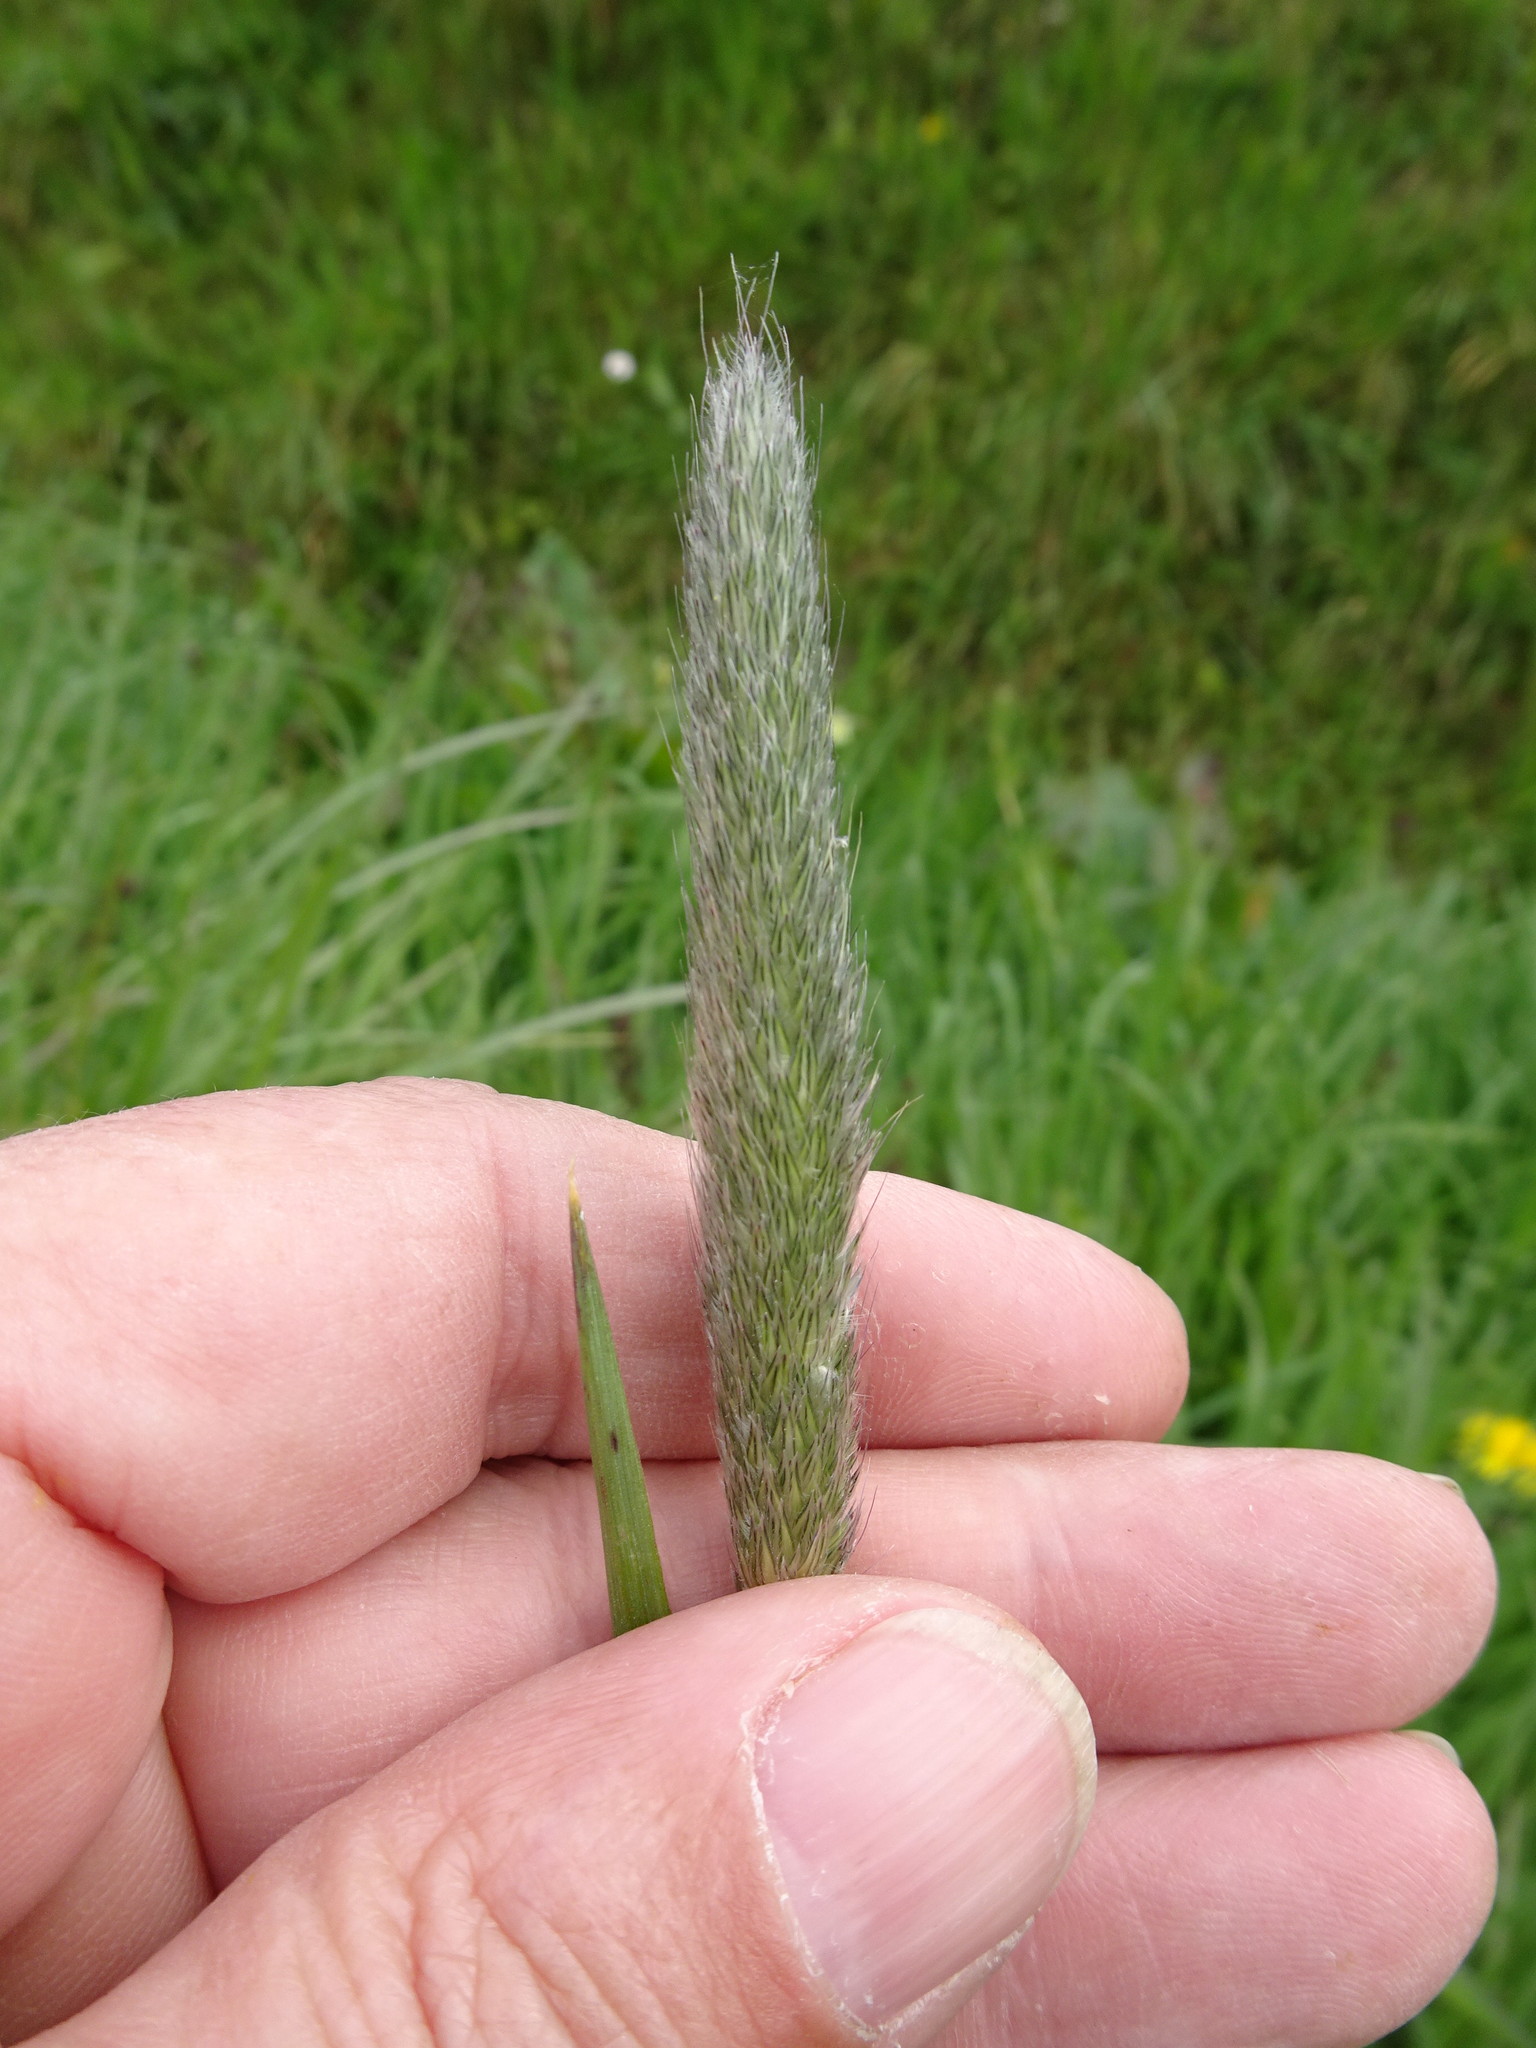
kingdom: Plantae
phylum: Tracheophyta
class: Liliopsida
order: Poales
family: Poaceae
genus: Alopecurus
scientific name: Alopecurus pratensis
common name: Meadow foxtail
